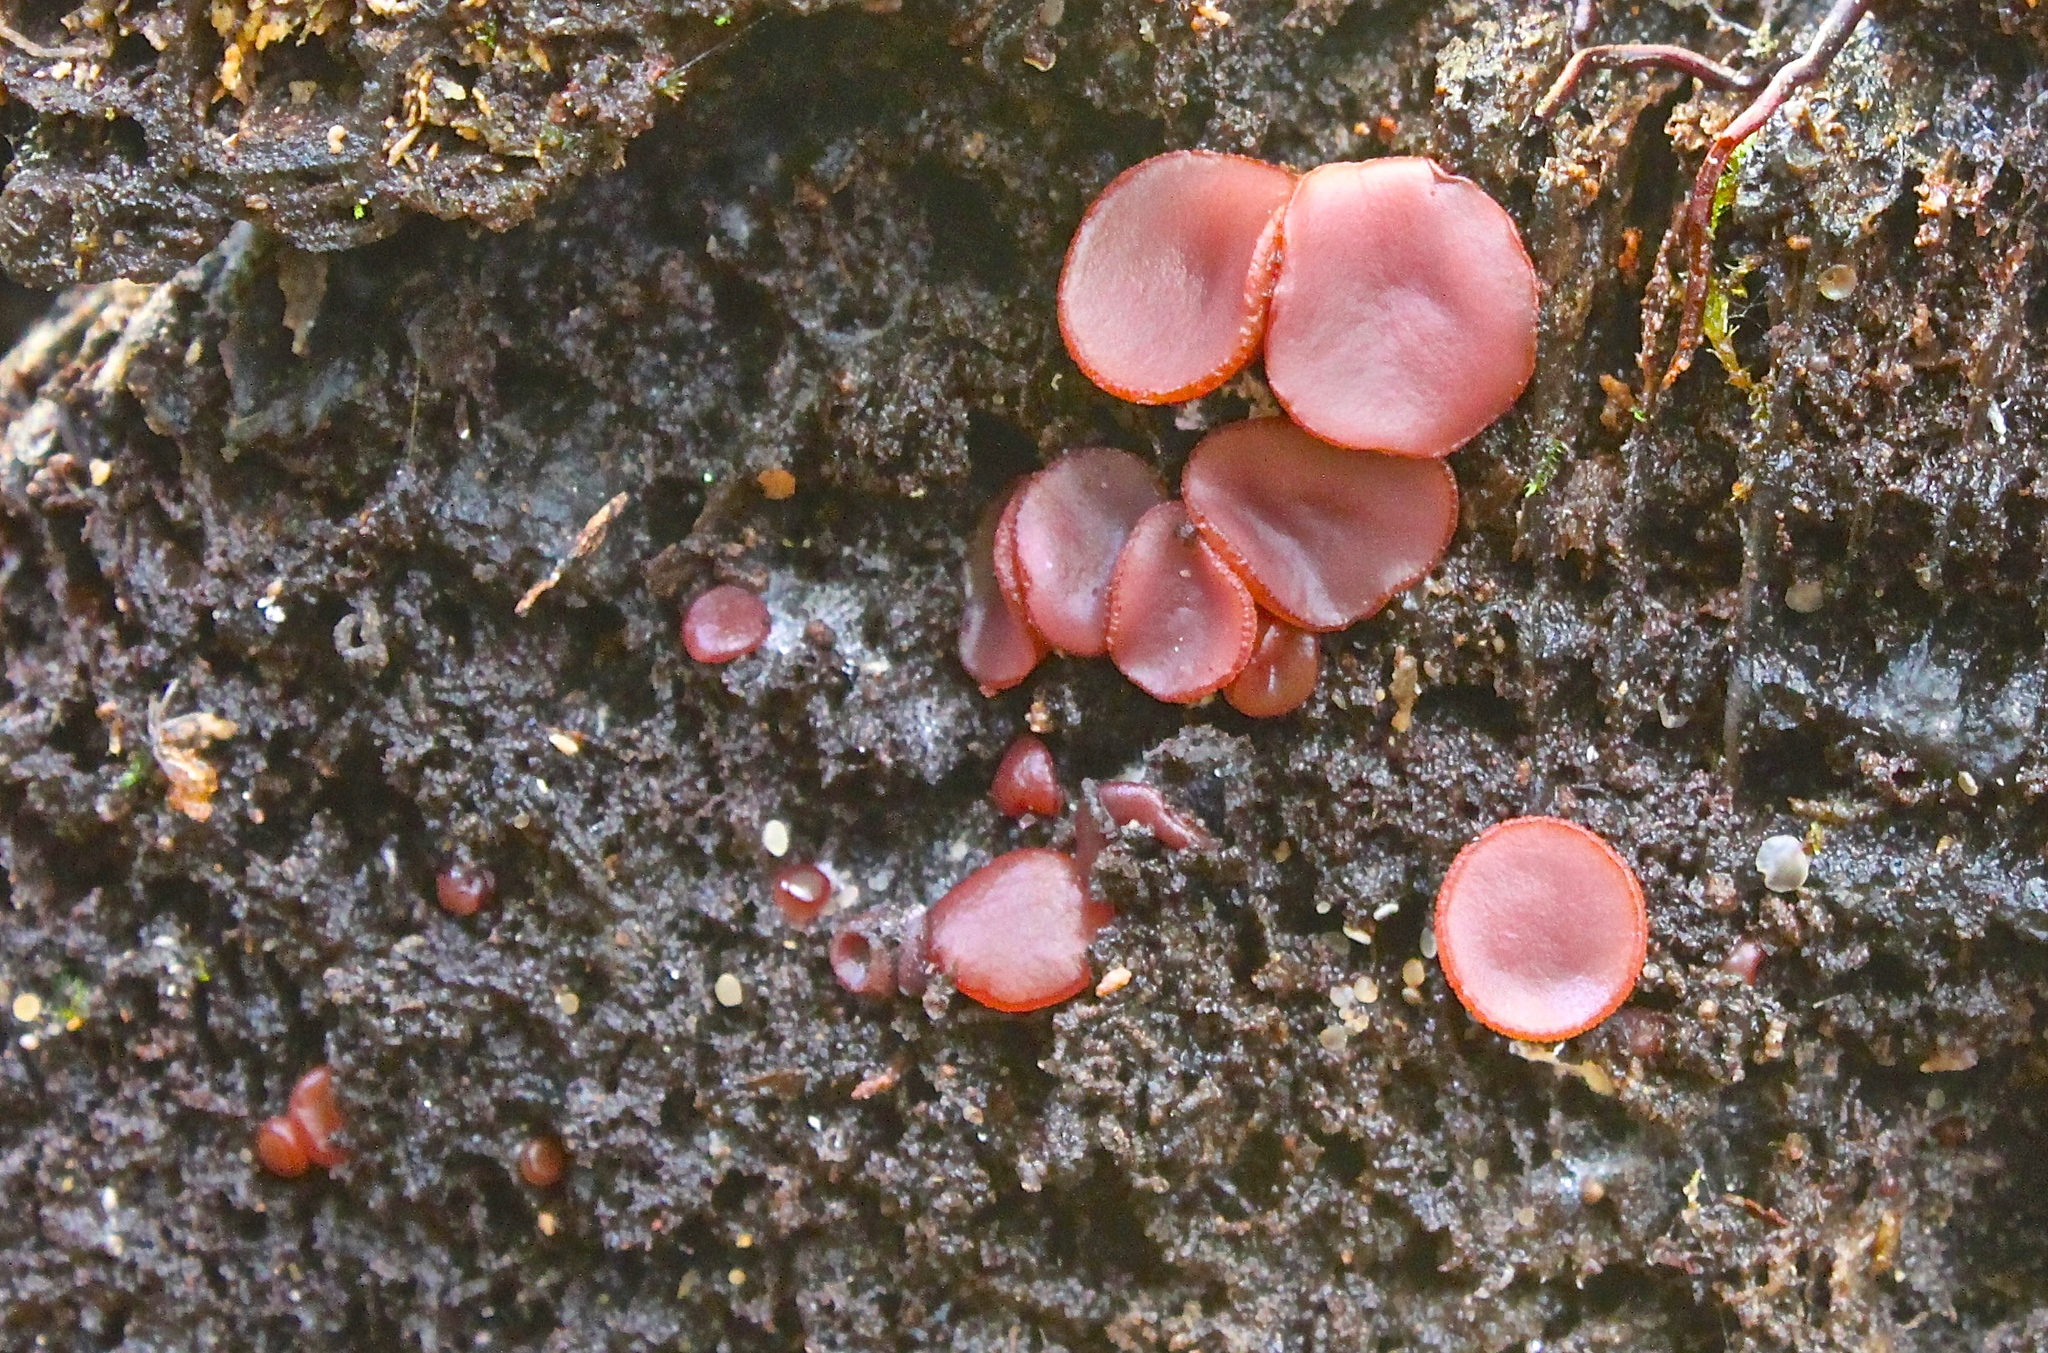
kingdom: Fungi
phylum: Ascomycota
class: Leotiomycetes
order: Helotiales
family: Gelatinodiscaceae
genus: Ascocoryne
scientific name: Ascocoryne cylichnium
